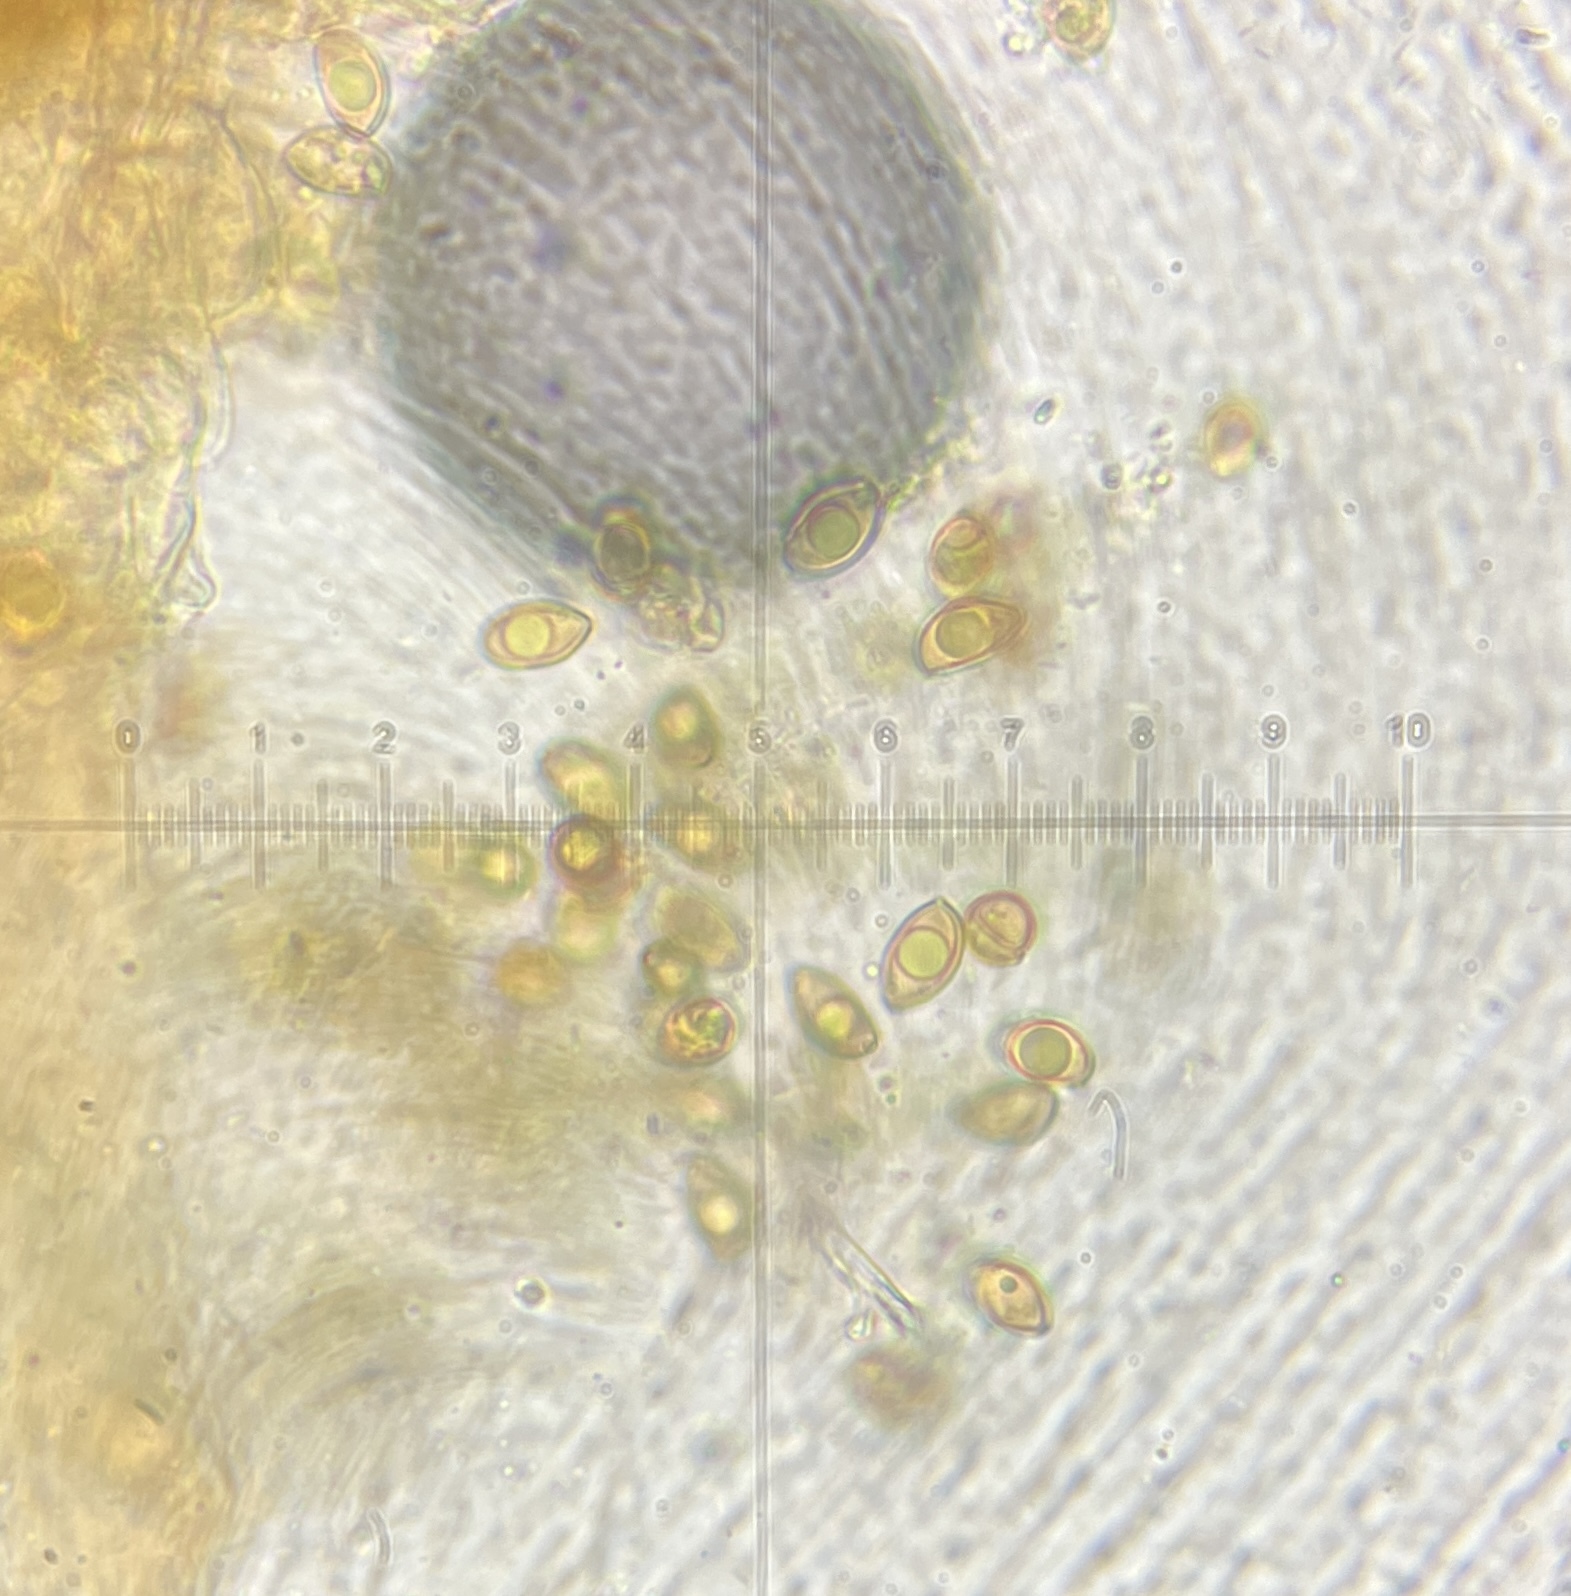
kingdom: Fungi
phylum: Basidiomycota
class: Agaricomycetes
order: Agaricales
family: Inocybaceae
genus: Inocybe
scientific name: Inocybe plurabellae
